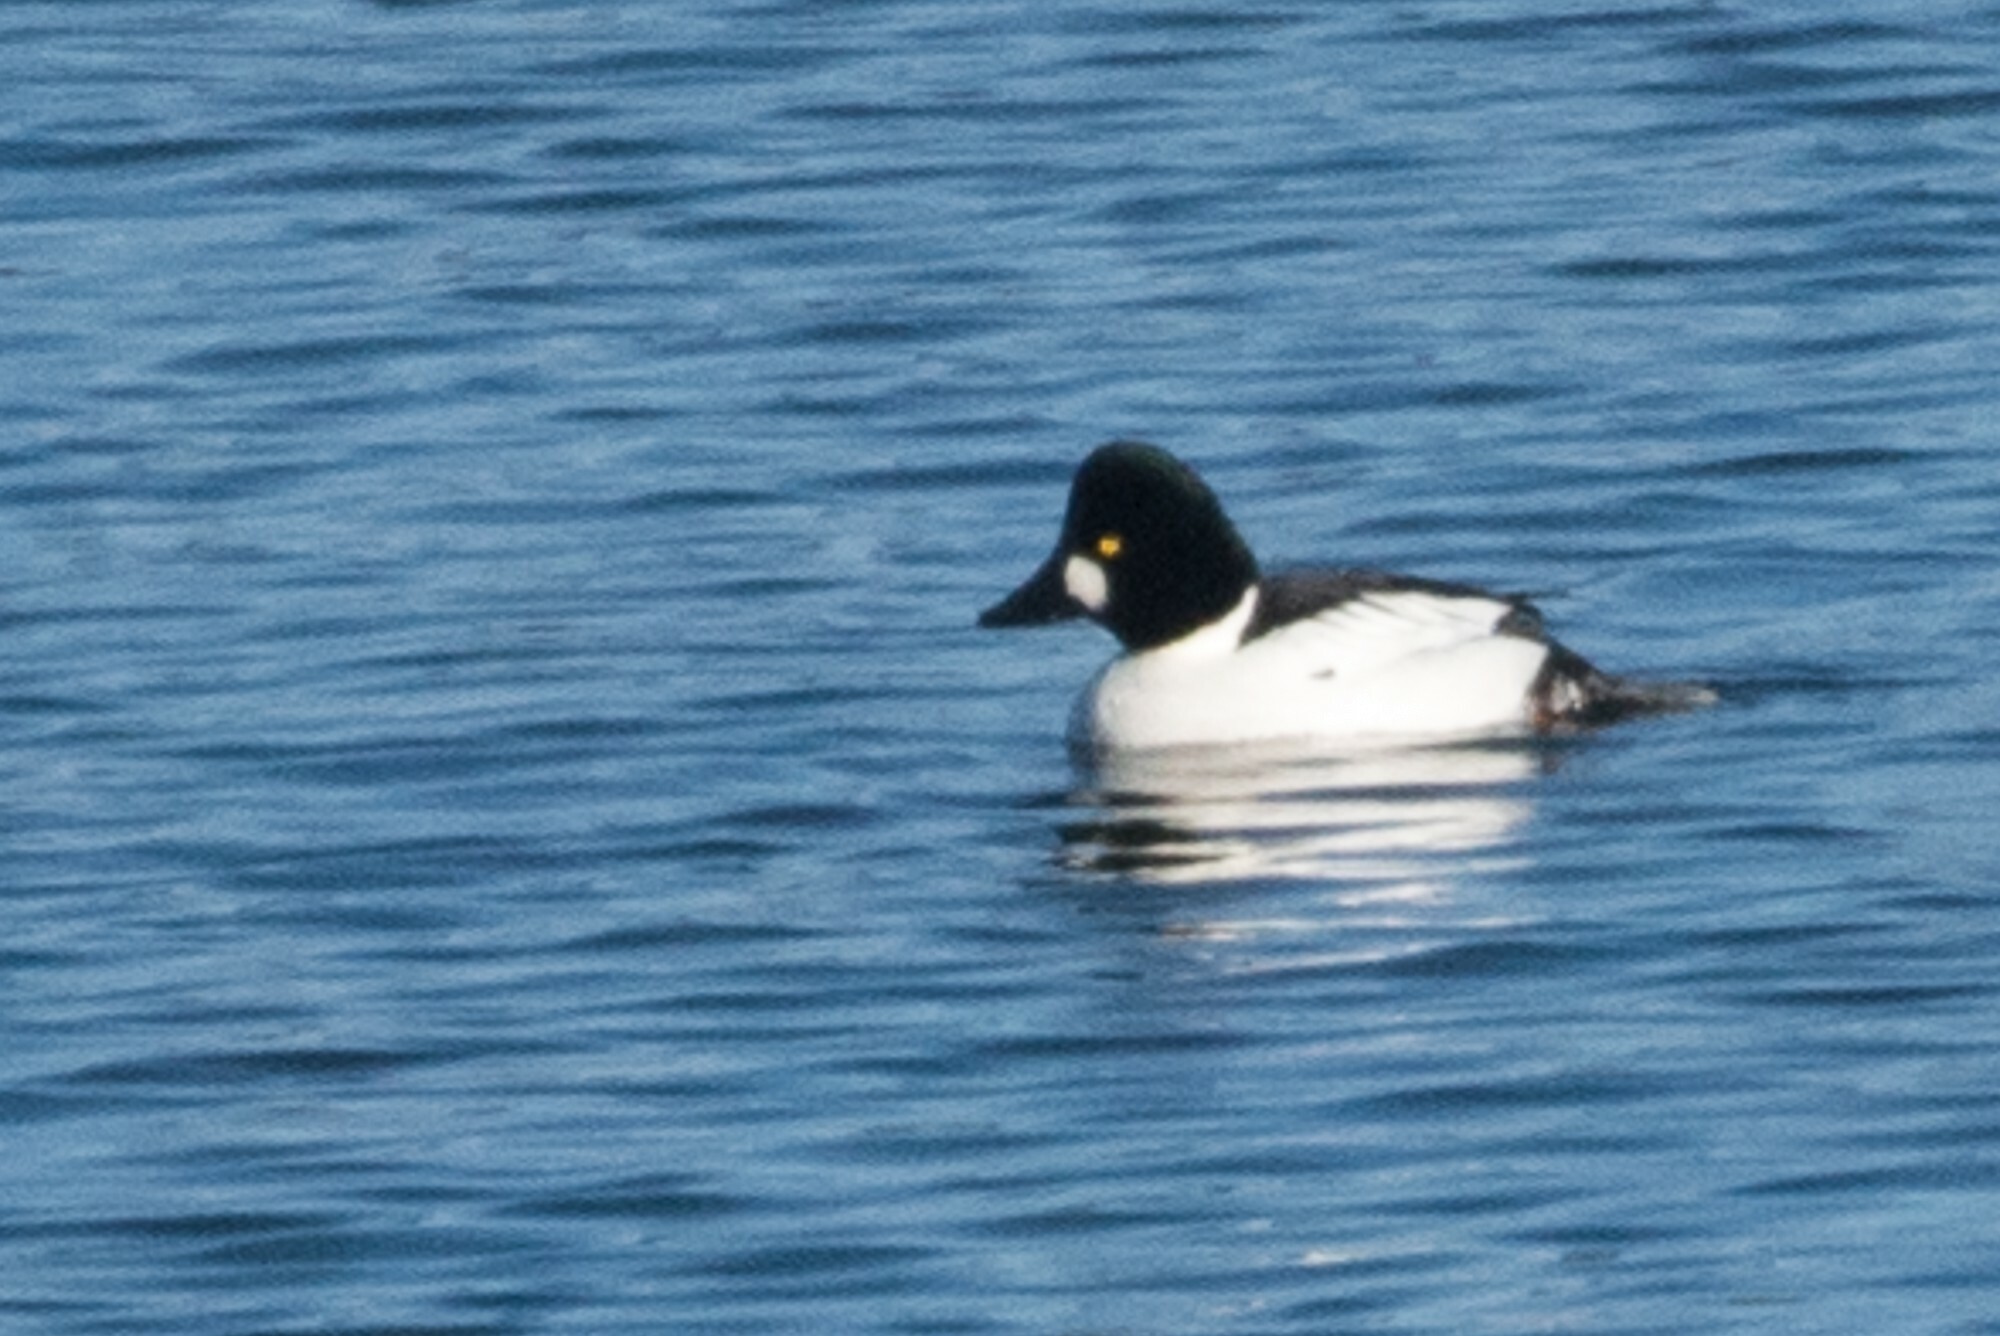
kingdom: Animalia
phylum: Chordata
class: Aves
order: Anseriformes
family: Anatidae
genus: Bucephala
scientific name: Bucephala clangula
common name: Common goldeneye
